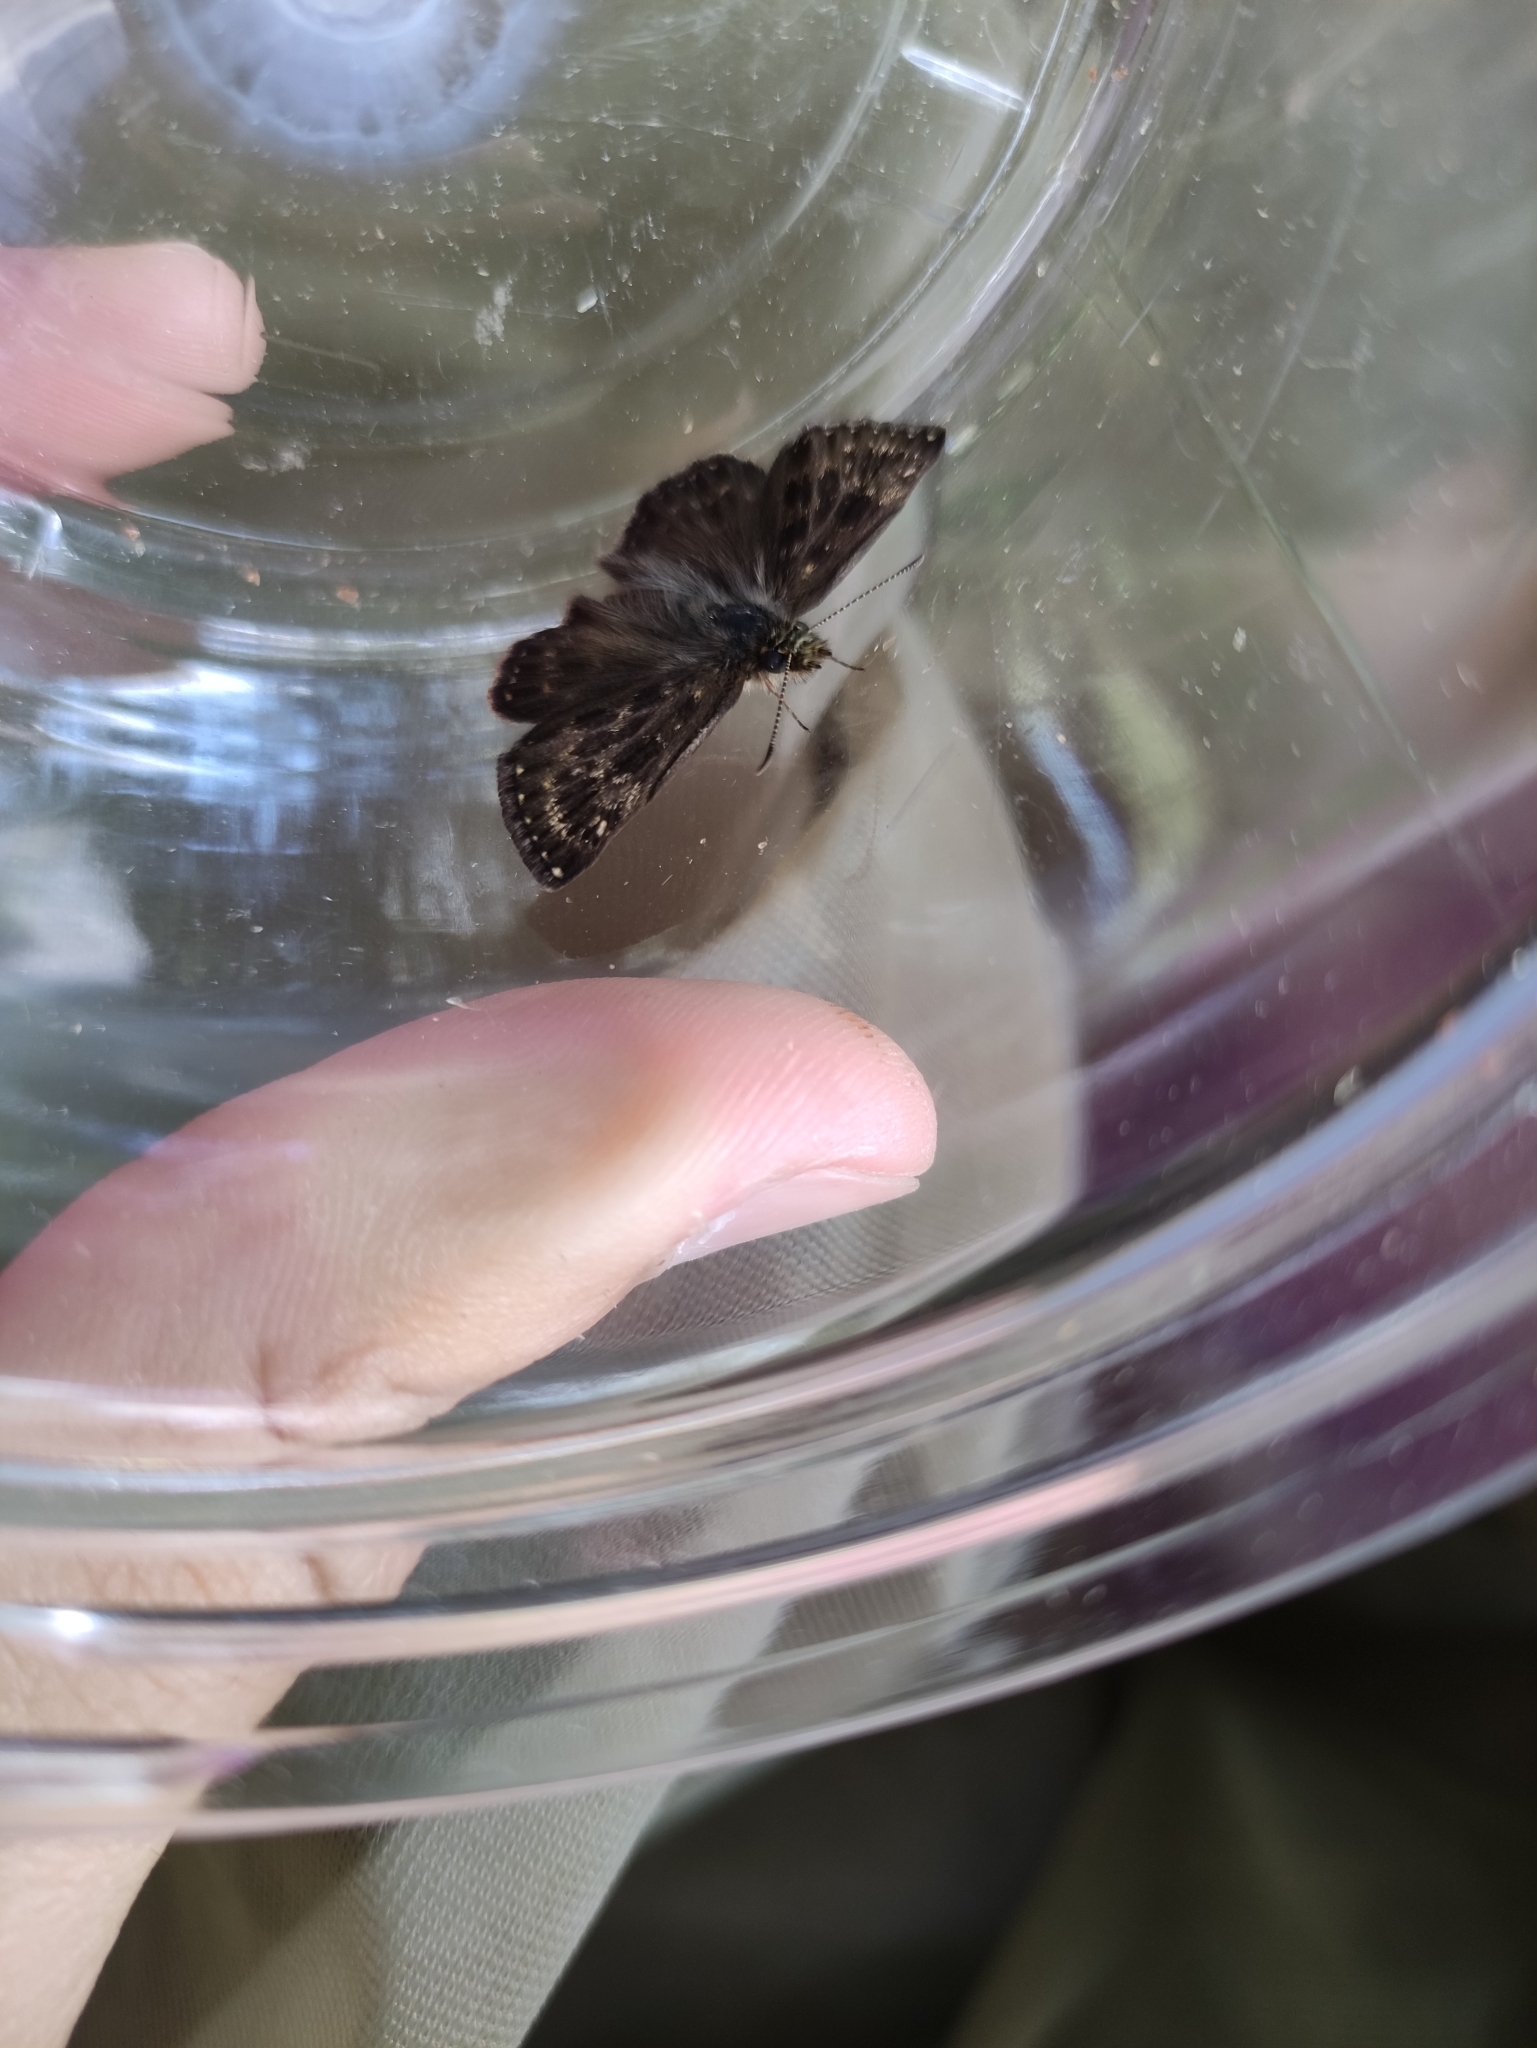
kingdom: Animalia
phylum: Arthropoda
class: Insecta
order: Lepidoptera
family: Hesperiidae
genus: Erynnis
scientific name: Erynnis tages
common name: Dingy skipper
